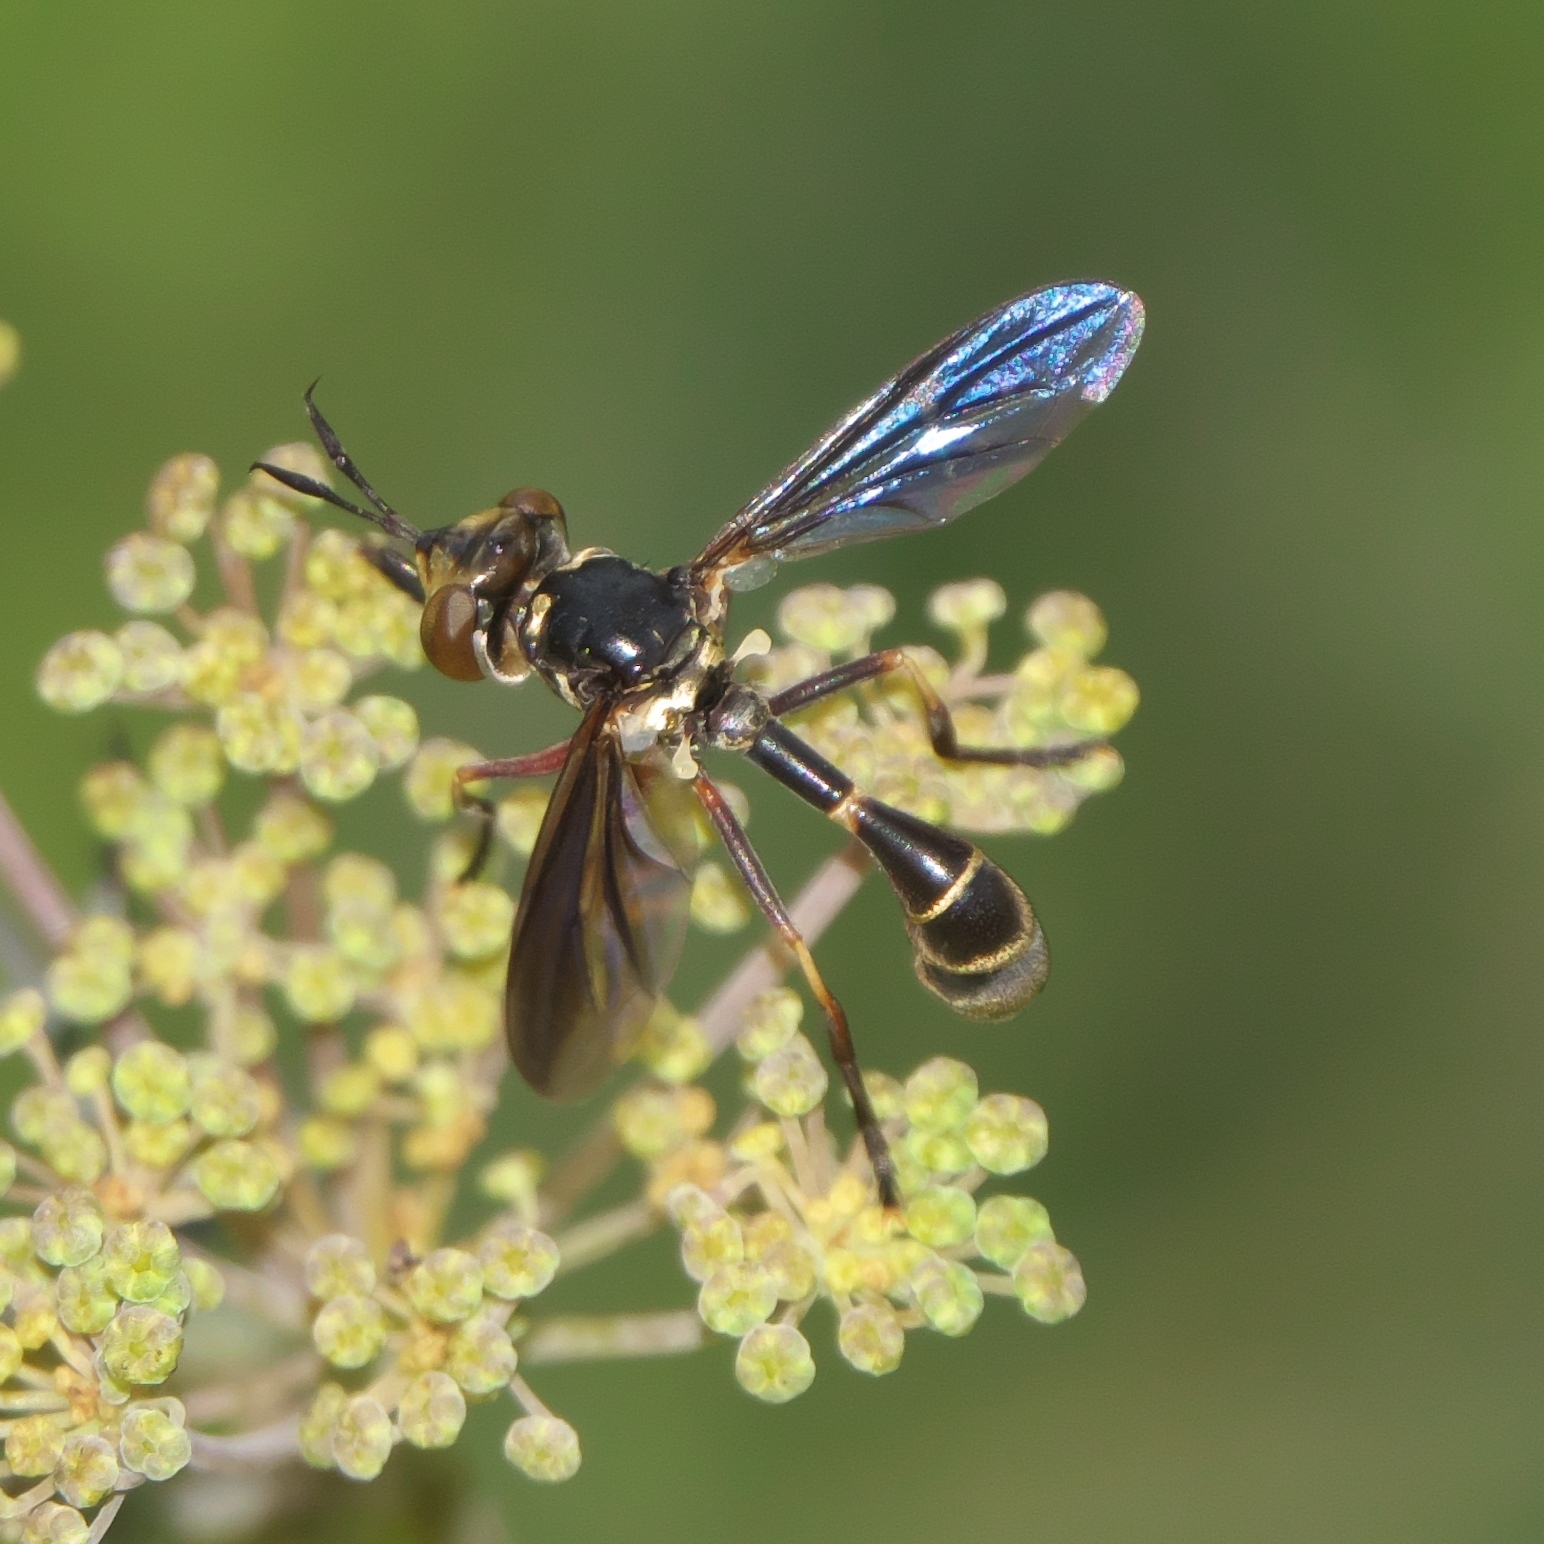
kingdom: Animalia
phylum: Arthropoda
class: Insecta
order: Diptera
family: Conopidae
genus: Physoconops
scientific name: Physoconops brachyrhynchus
